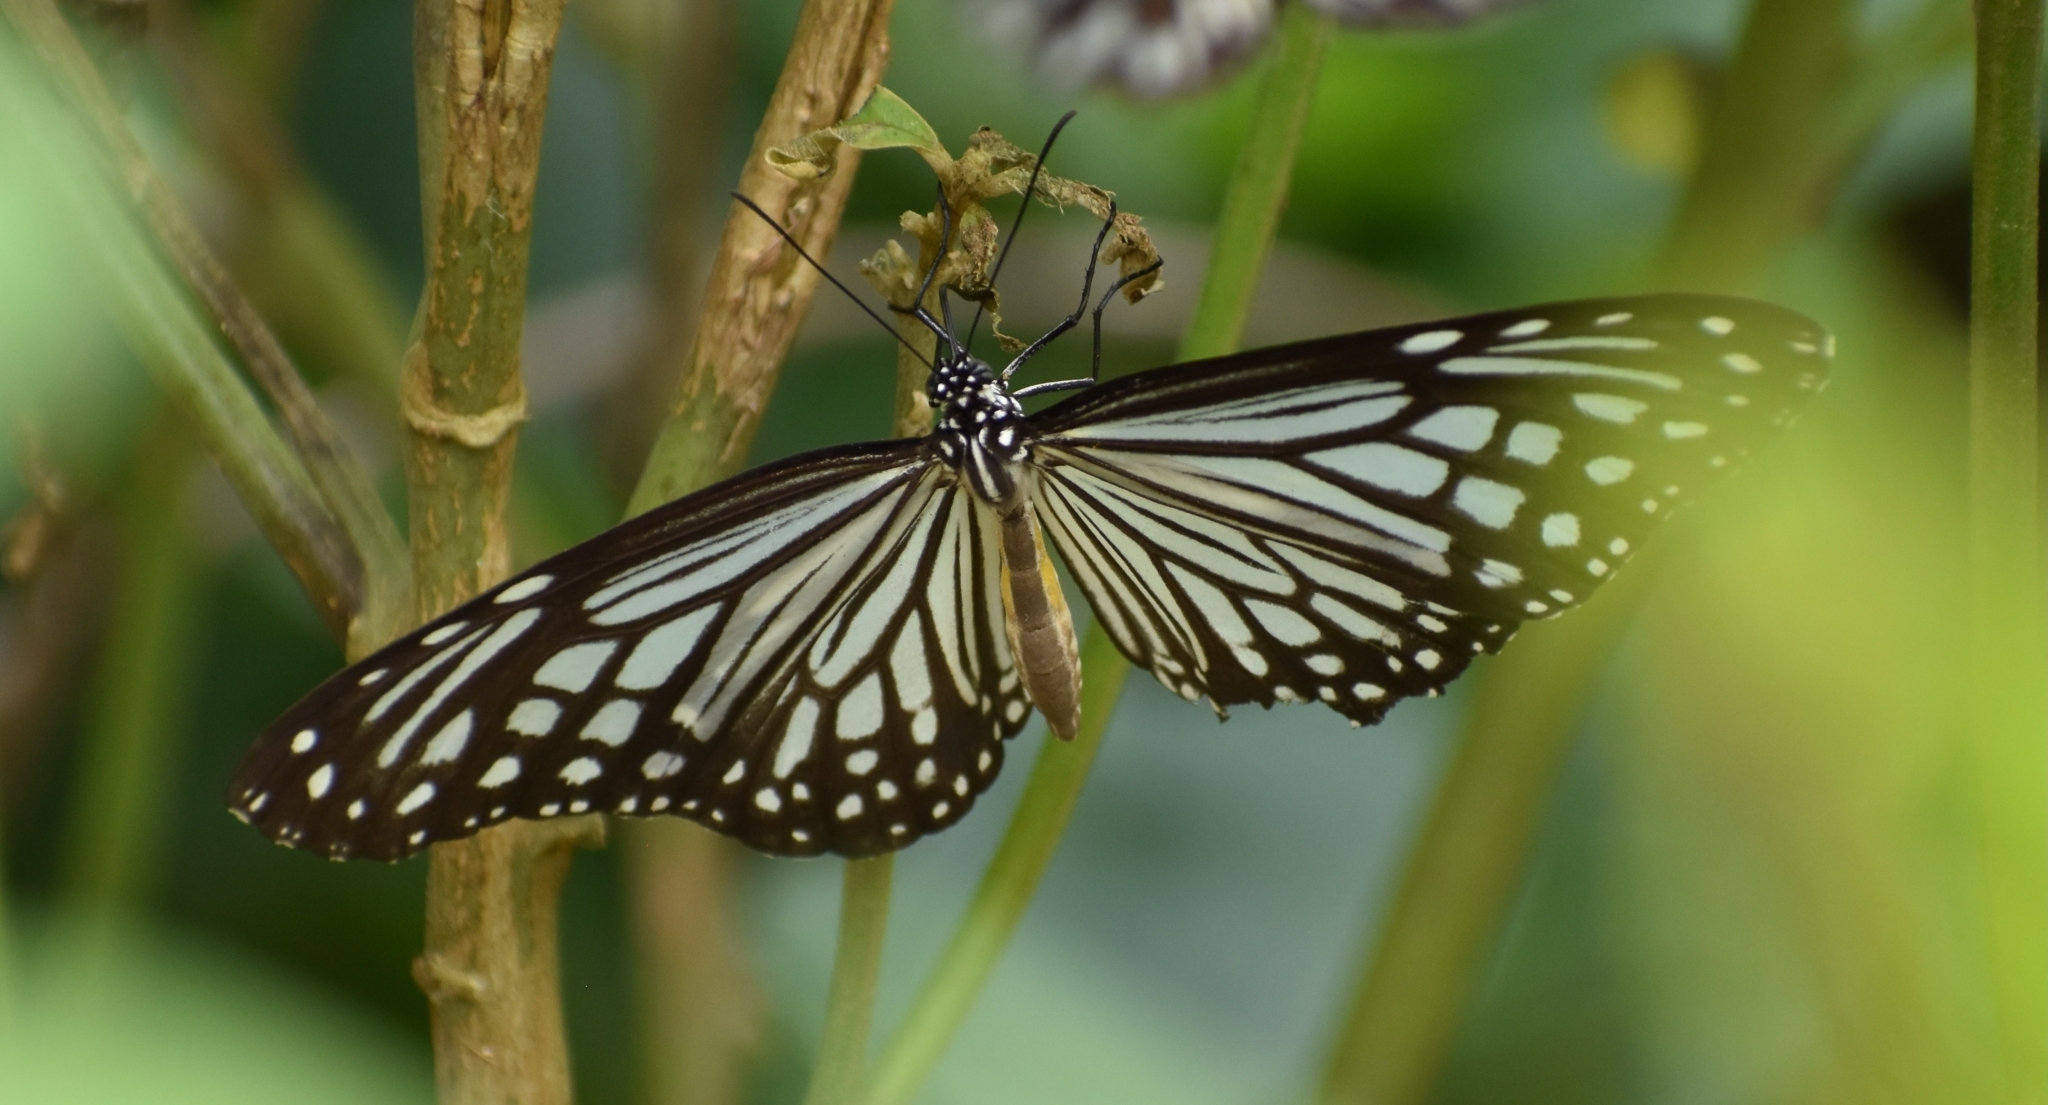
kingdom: Animalia
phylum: Arthropoda
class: Insecta
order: Lepidoptera
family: Nymphalidae
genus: Parantica
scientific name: Parantica aglea
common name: Glassy tiger
